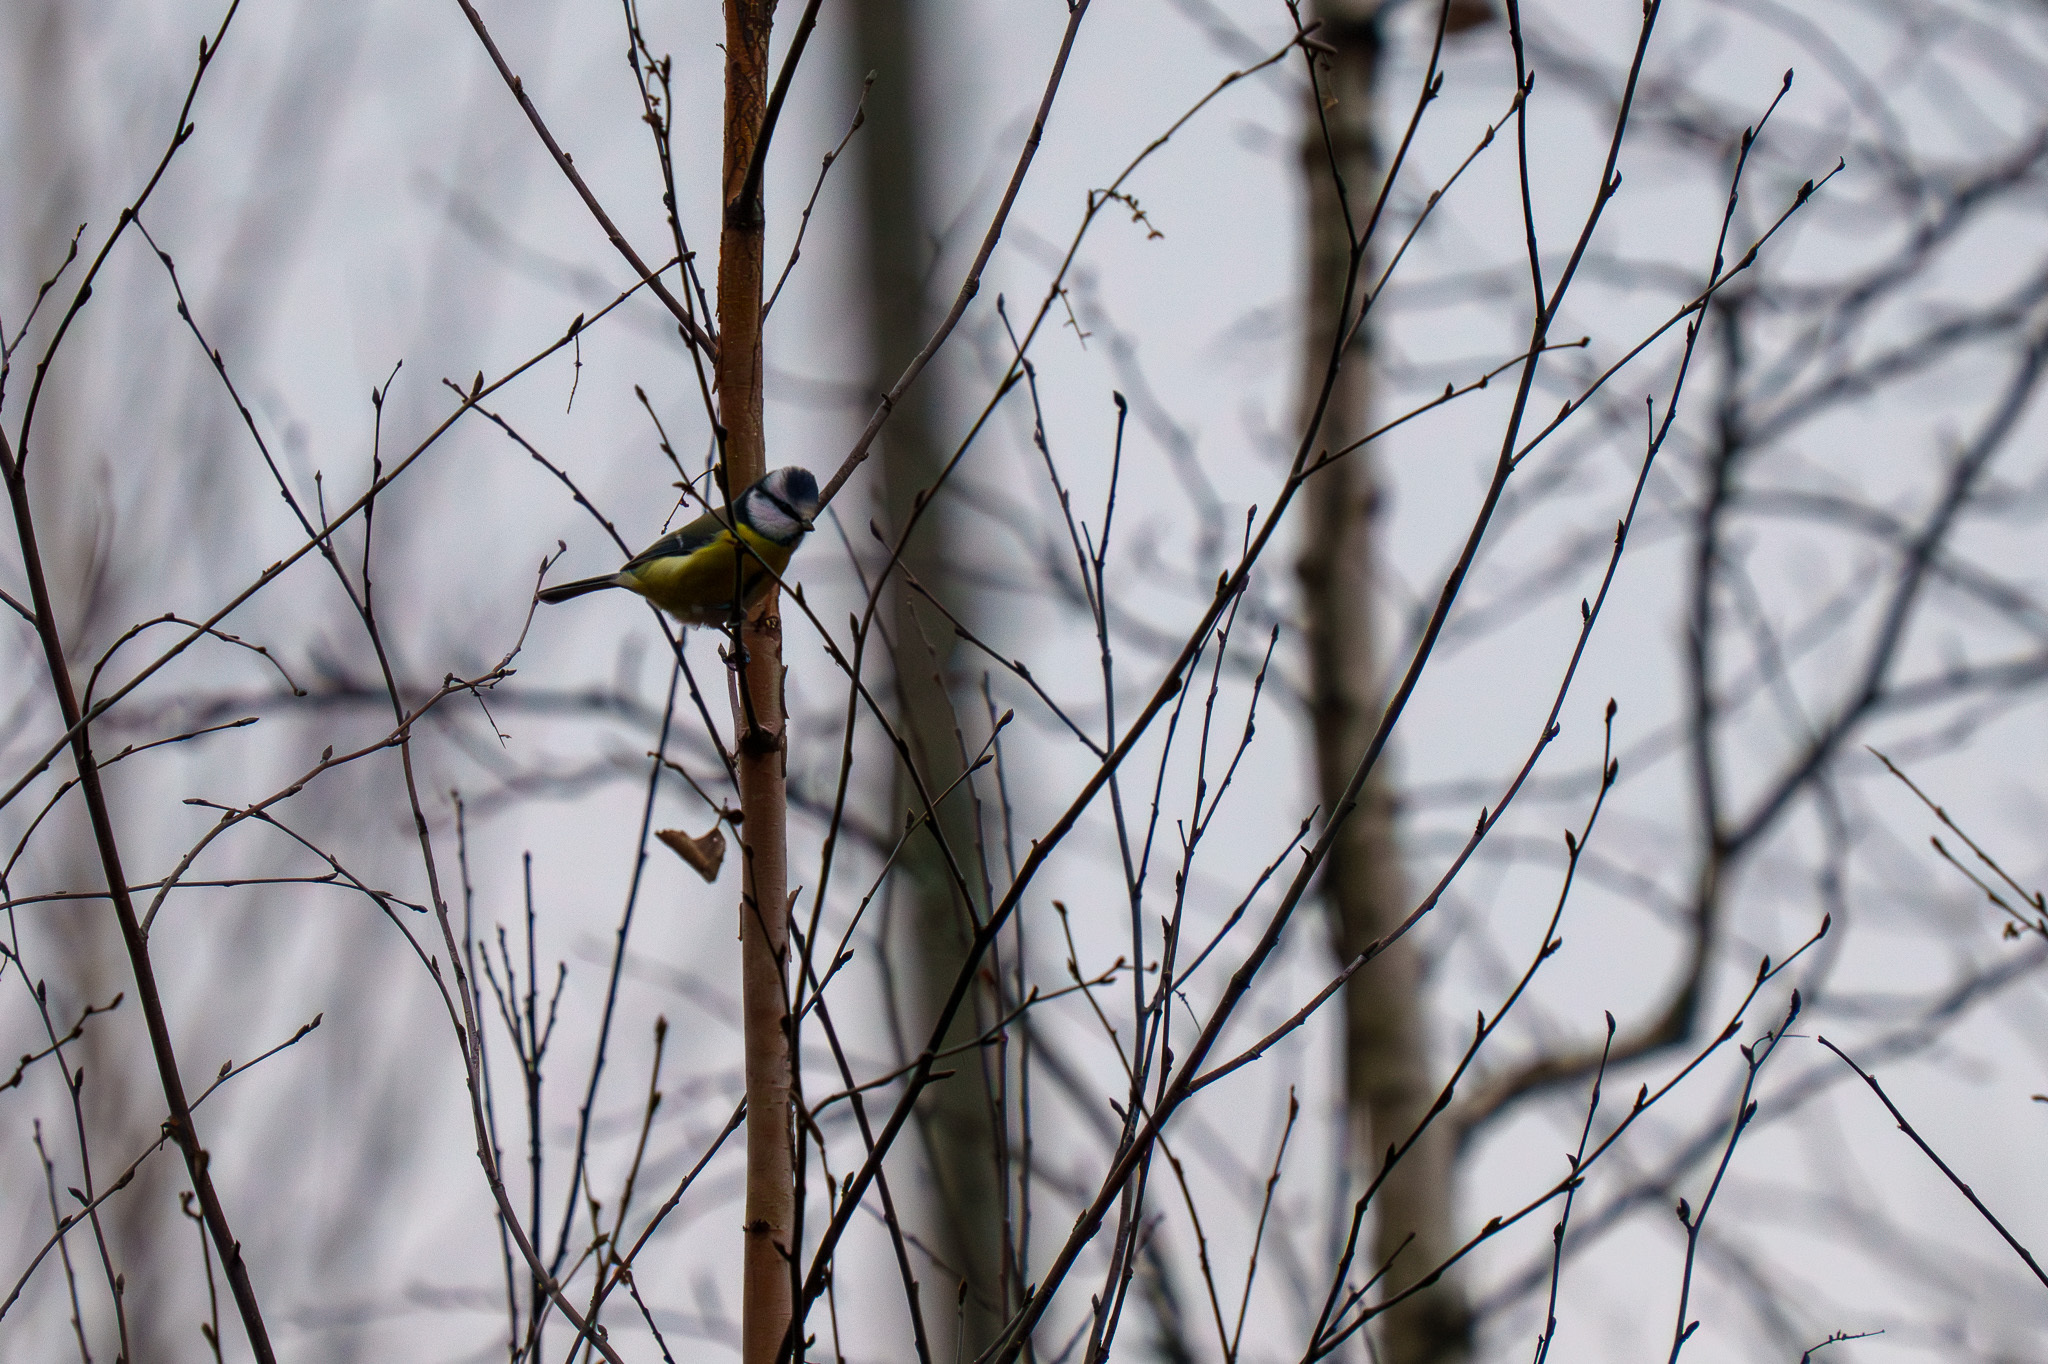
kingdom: Animalia
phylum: Chordata
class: Aves
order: Passeriformes
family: Paridae
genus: Cyanistes
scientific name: Cyanistes caeruleus
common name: Eurasian blue tit
